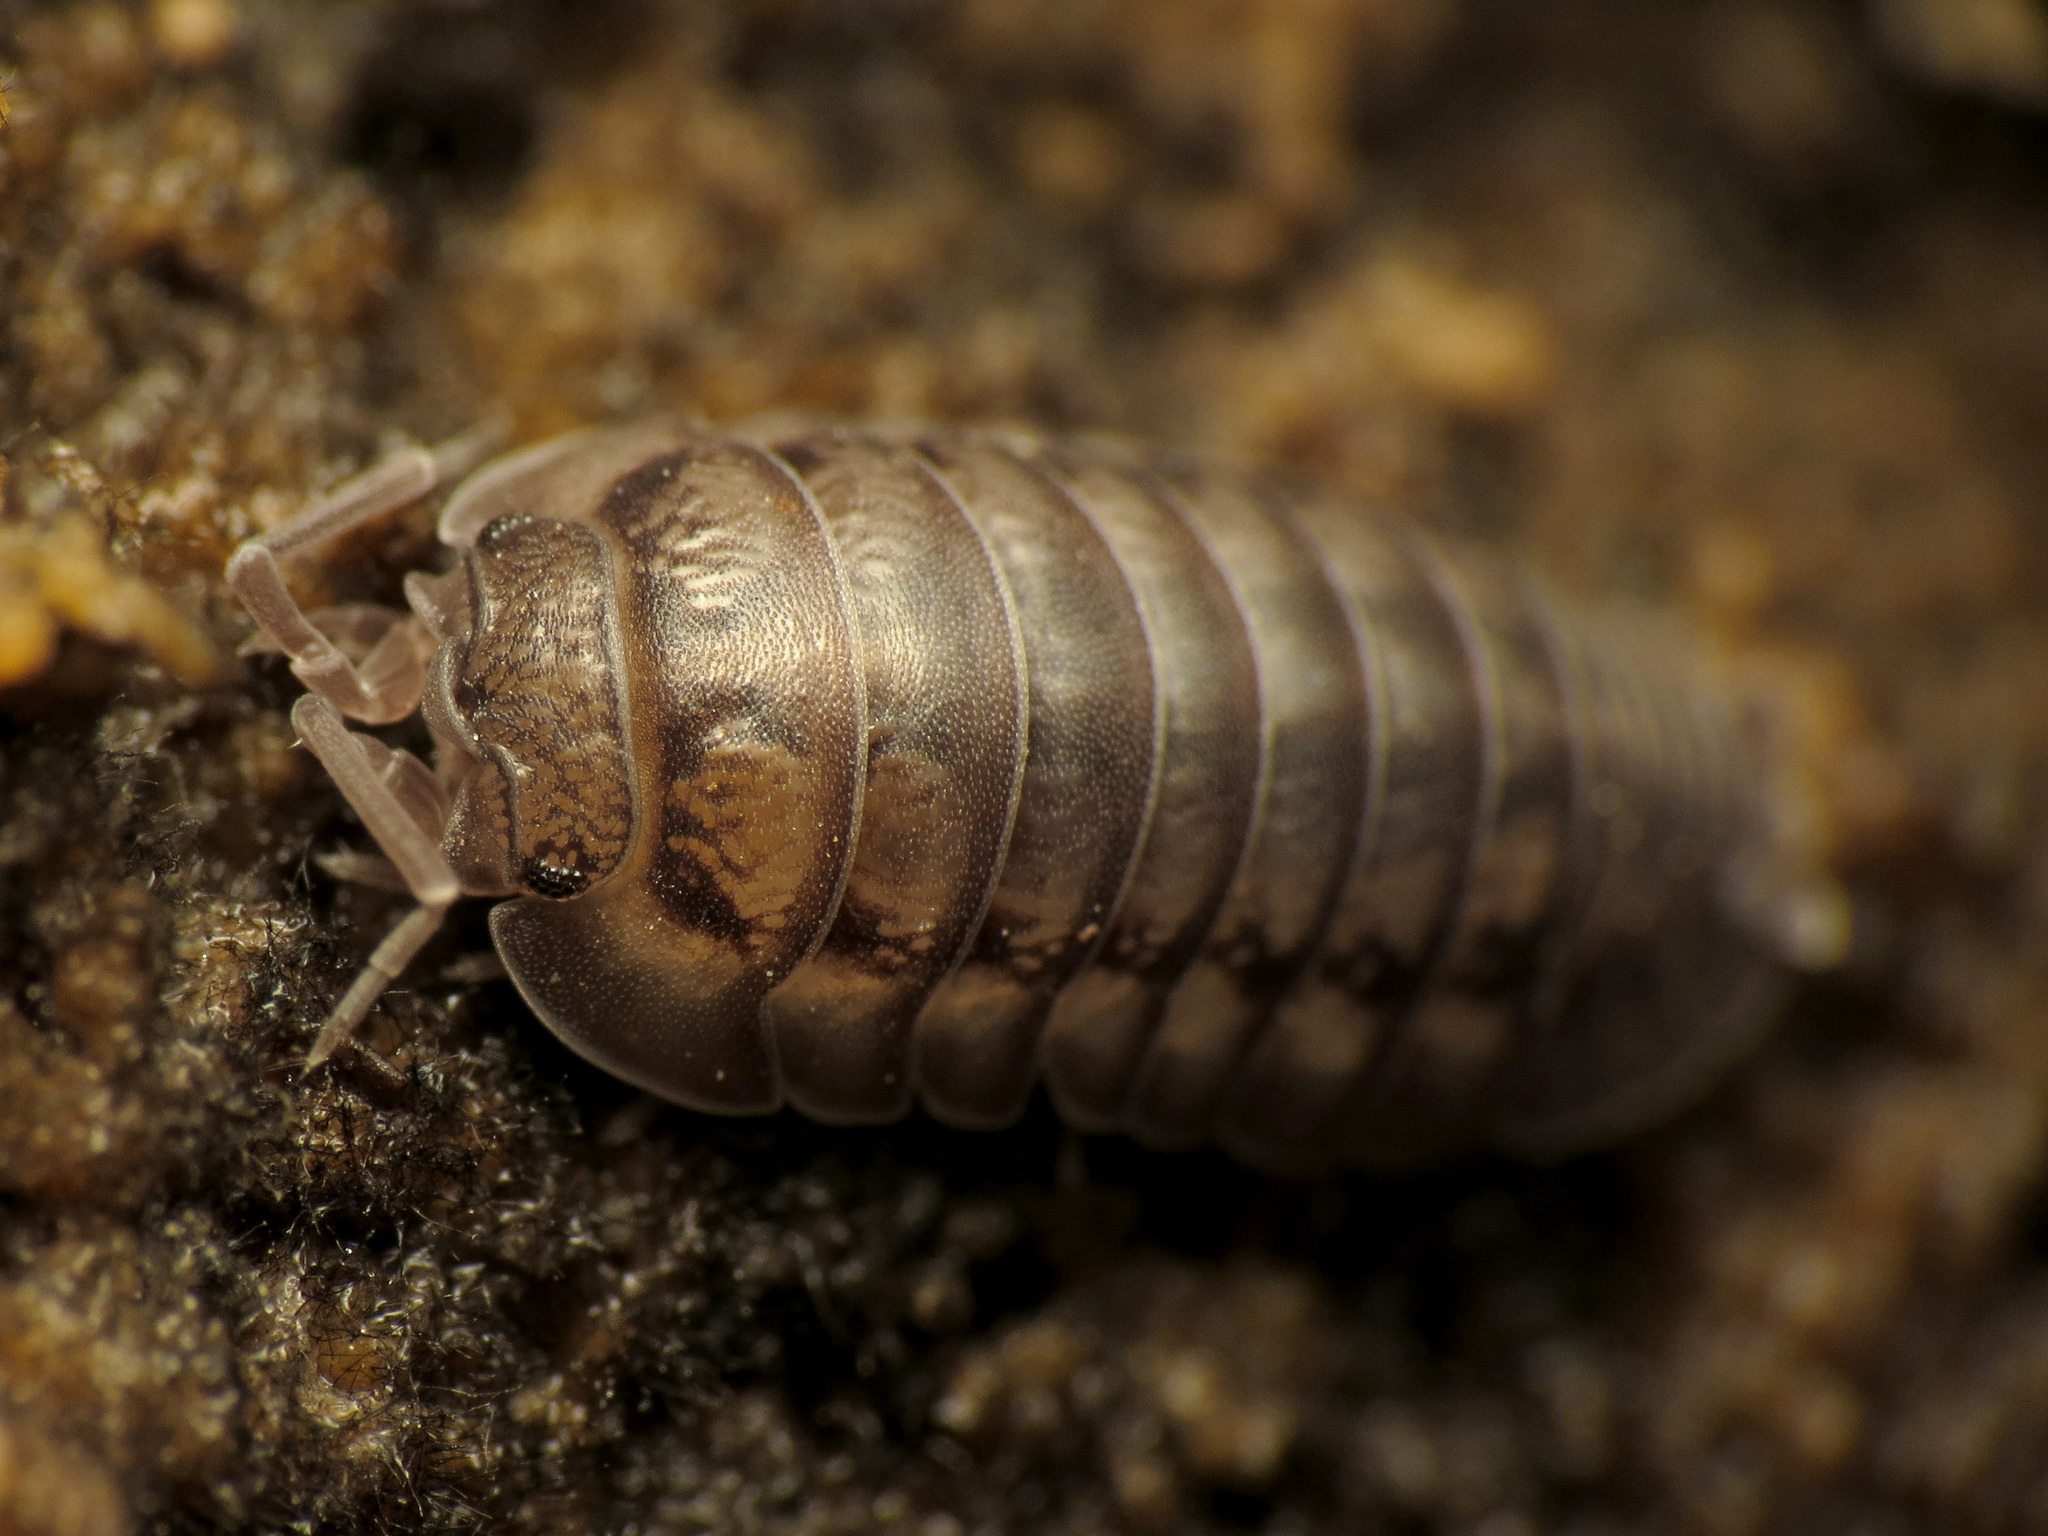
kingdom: Animalia
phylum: Arthropoda
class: Malacostraca
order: Isopoda
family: Armadillidiidae
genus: Armadillidium
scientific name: Armadillidium nasatum
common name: Isopod
